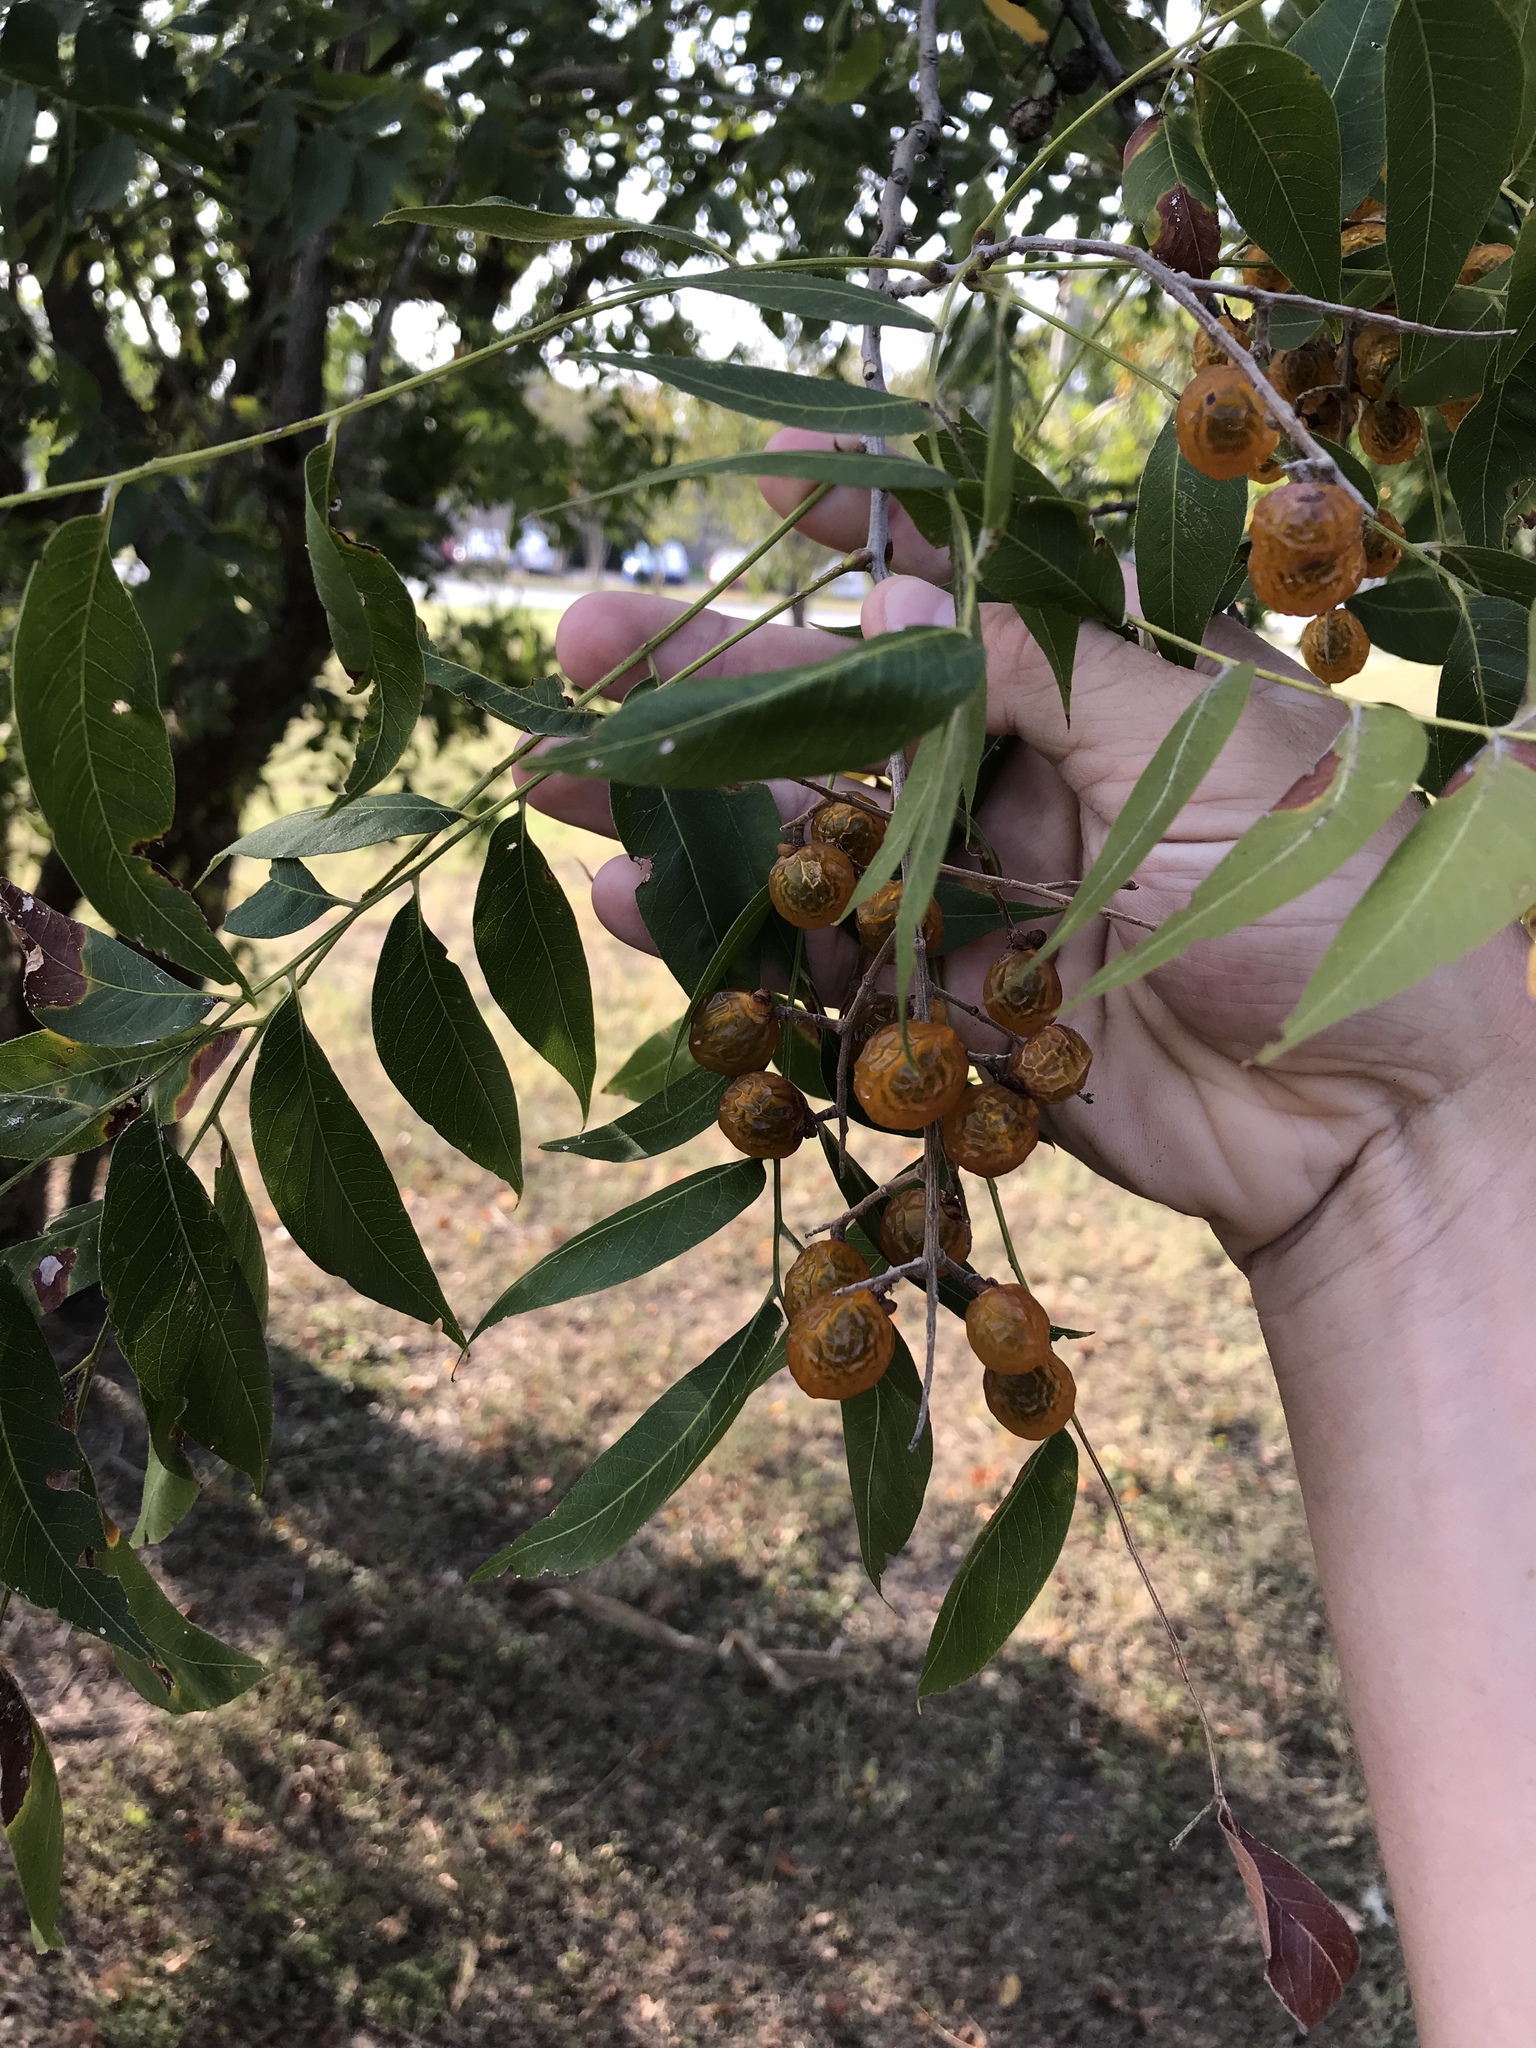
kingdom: Plantae
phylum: Tracheophyta
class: Magnoliopsida
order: Sapindales
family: Sapindaceae
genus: Sapindus
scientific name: Sapindus drummondii
